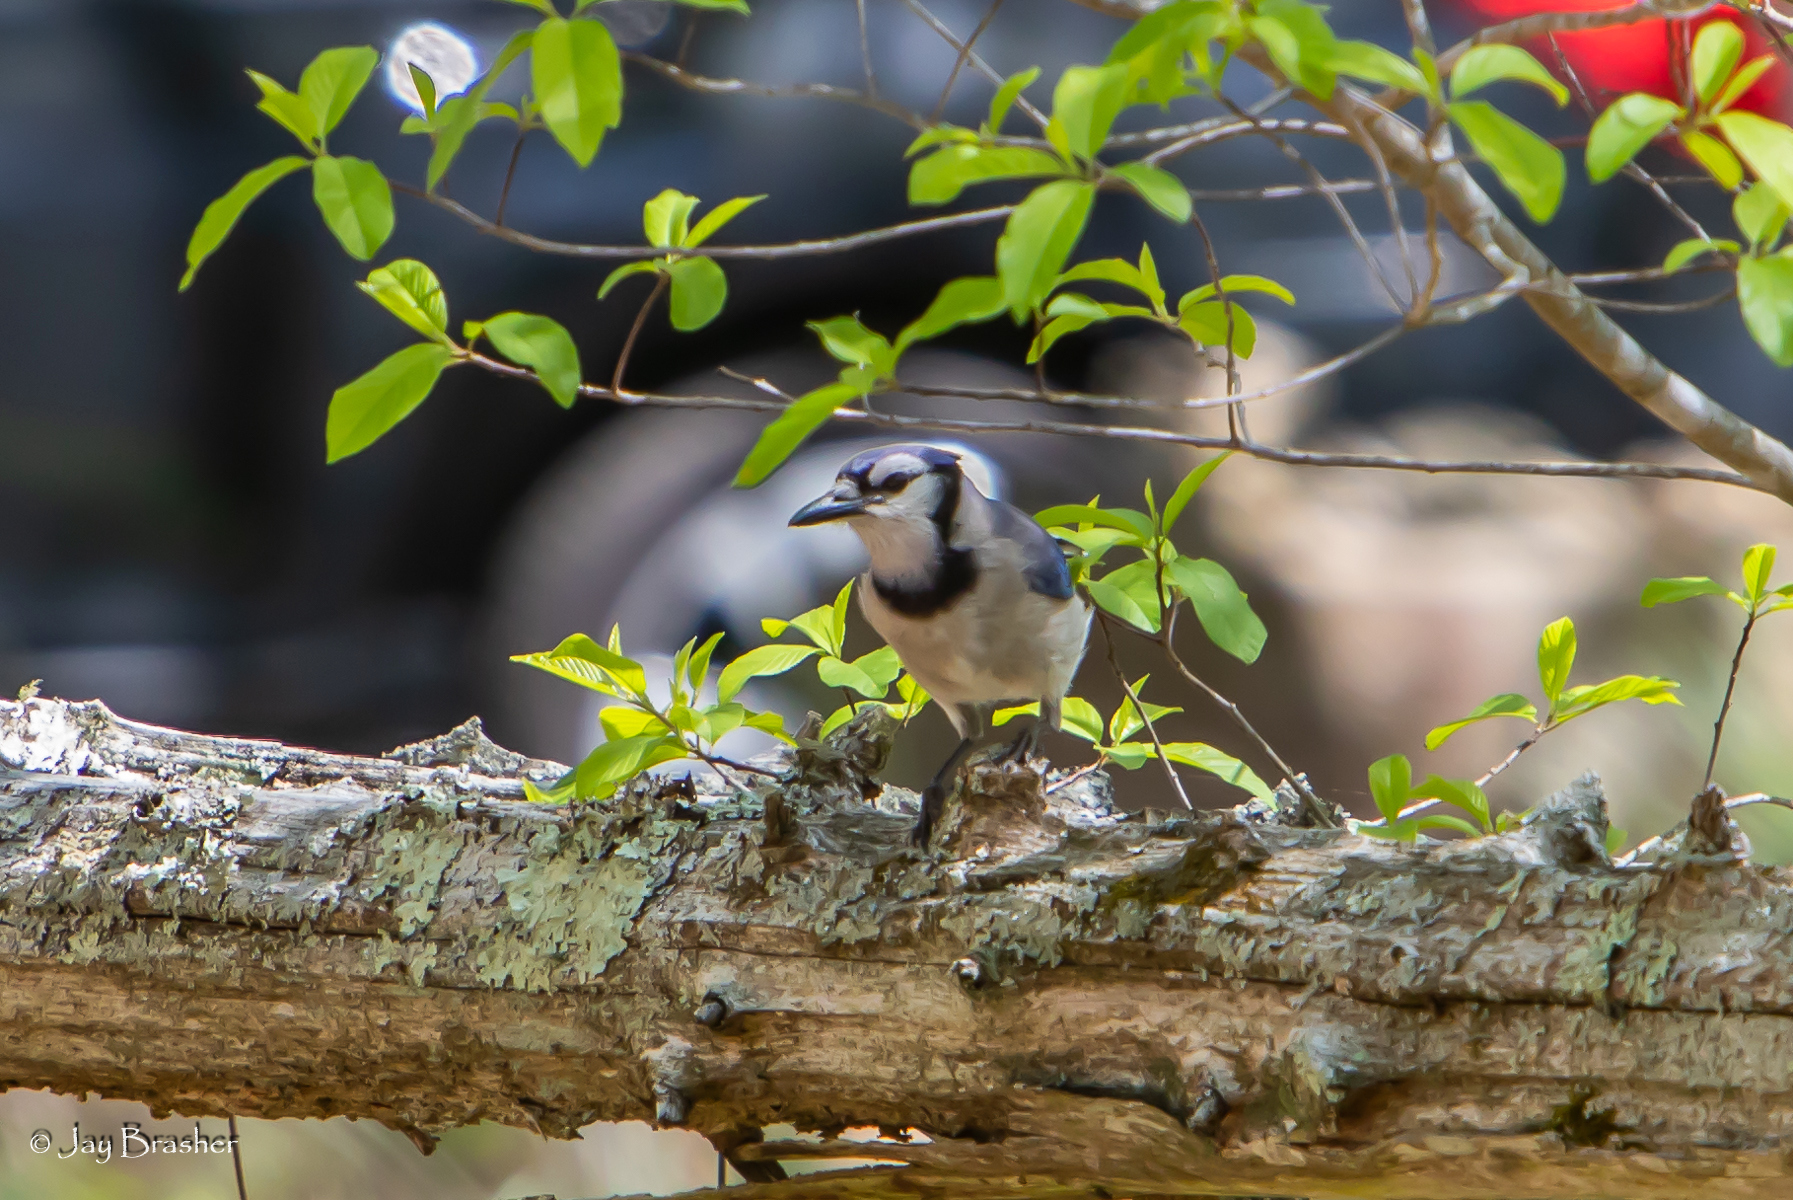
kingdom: Animalia
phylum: Chordata
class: Aves
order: Passeriformes
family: Corvidae
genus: Cyanocitta
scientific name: Cyanocitta cristata
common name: Blue jay
